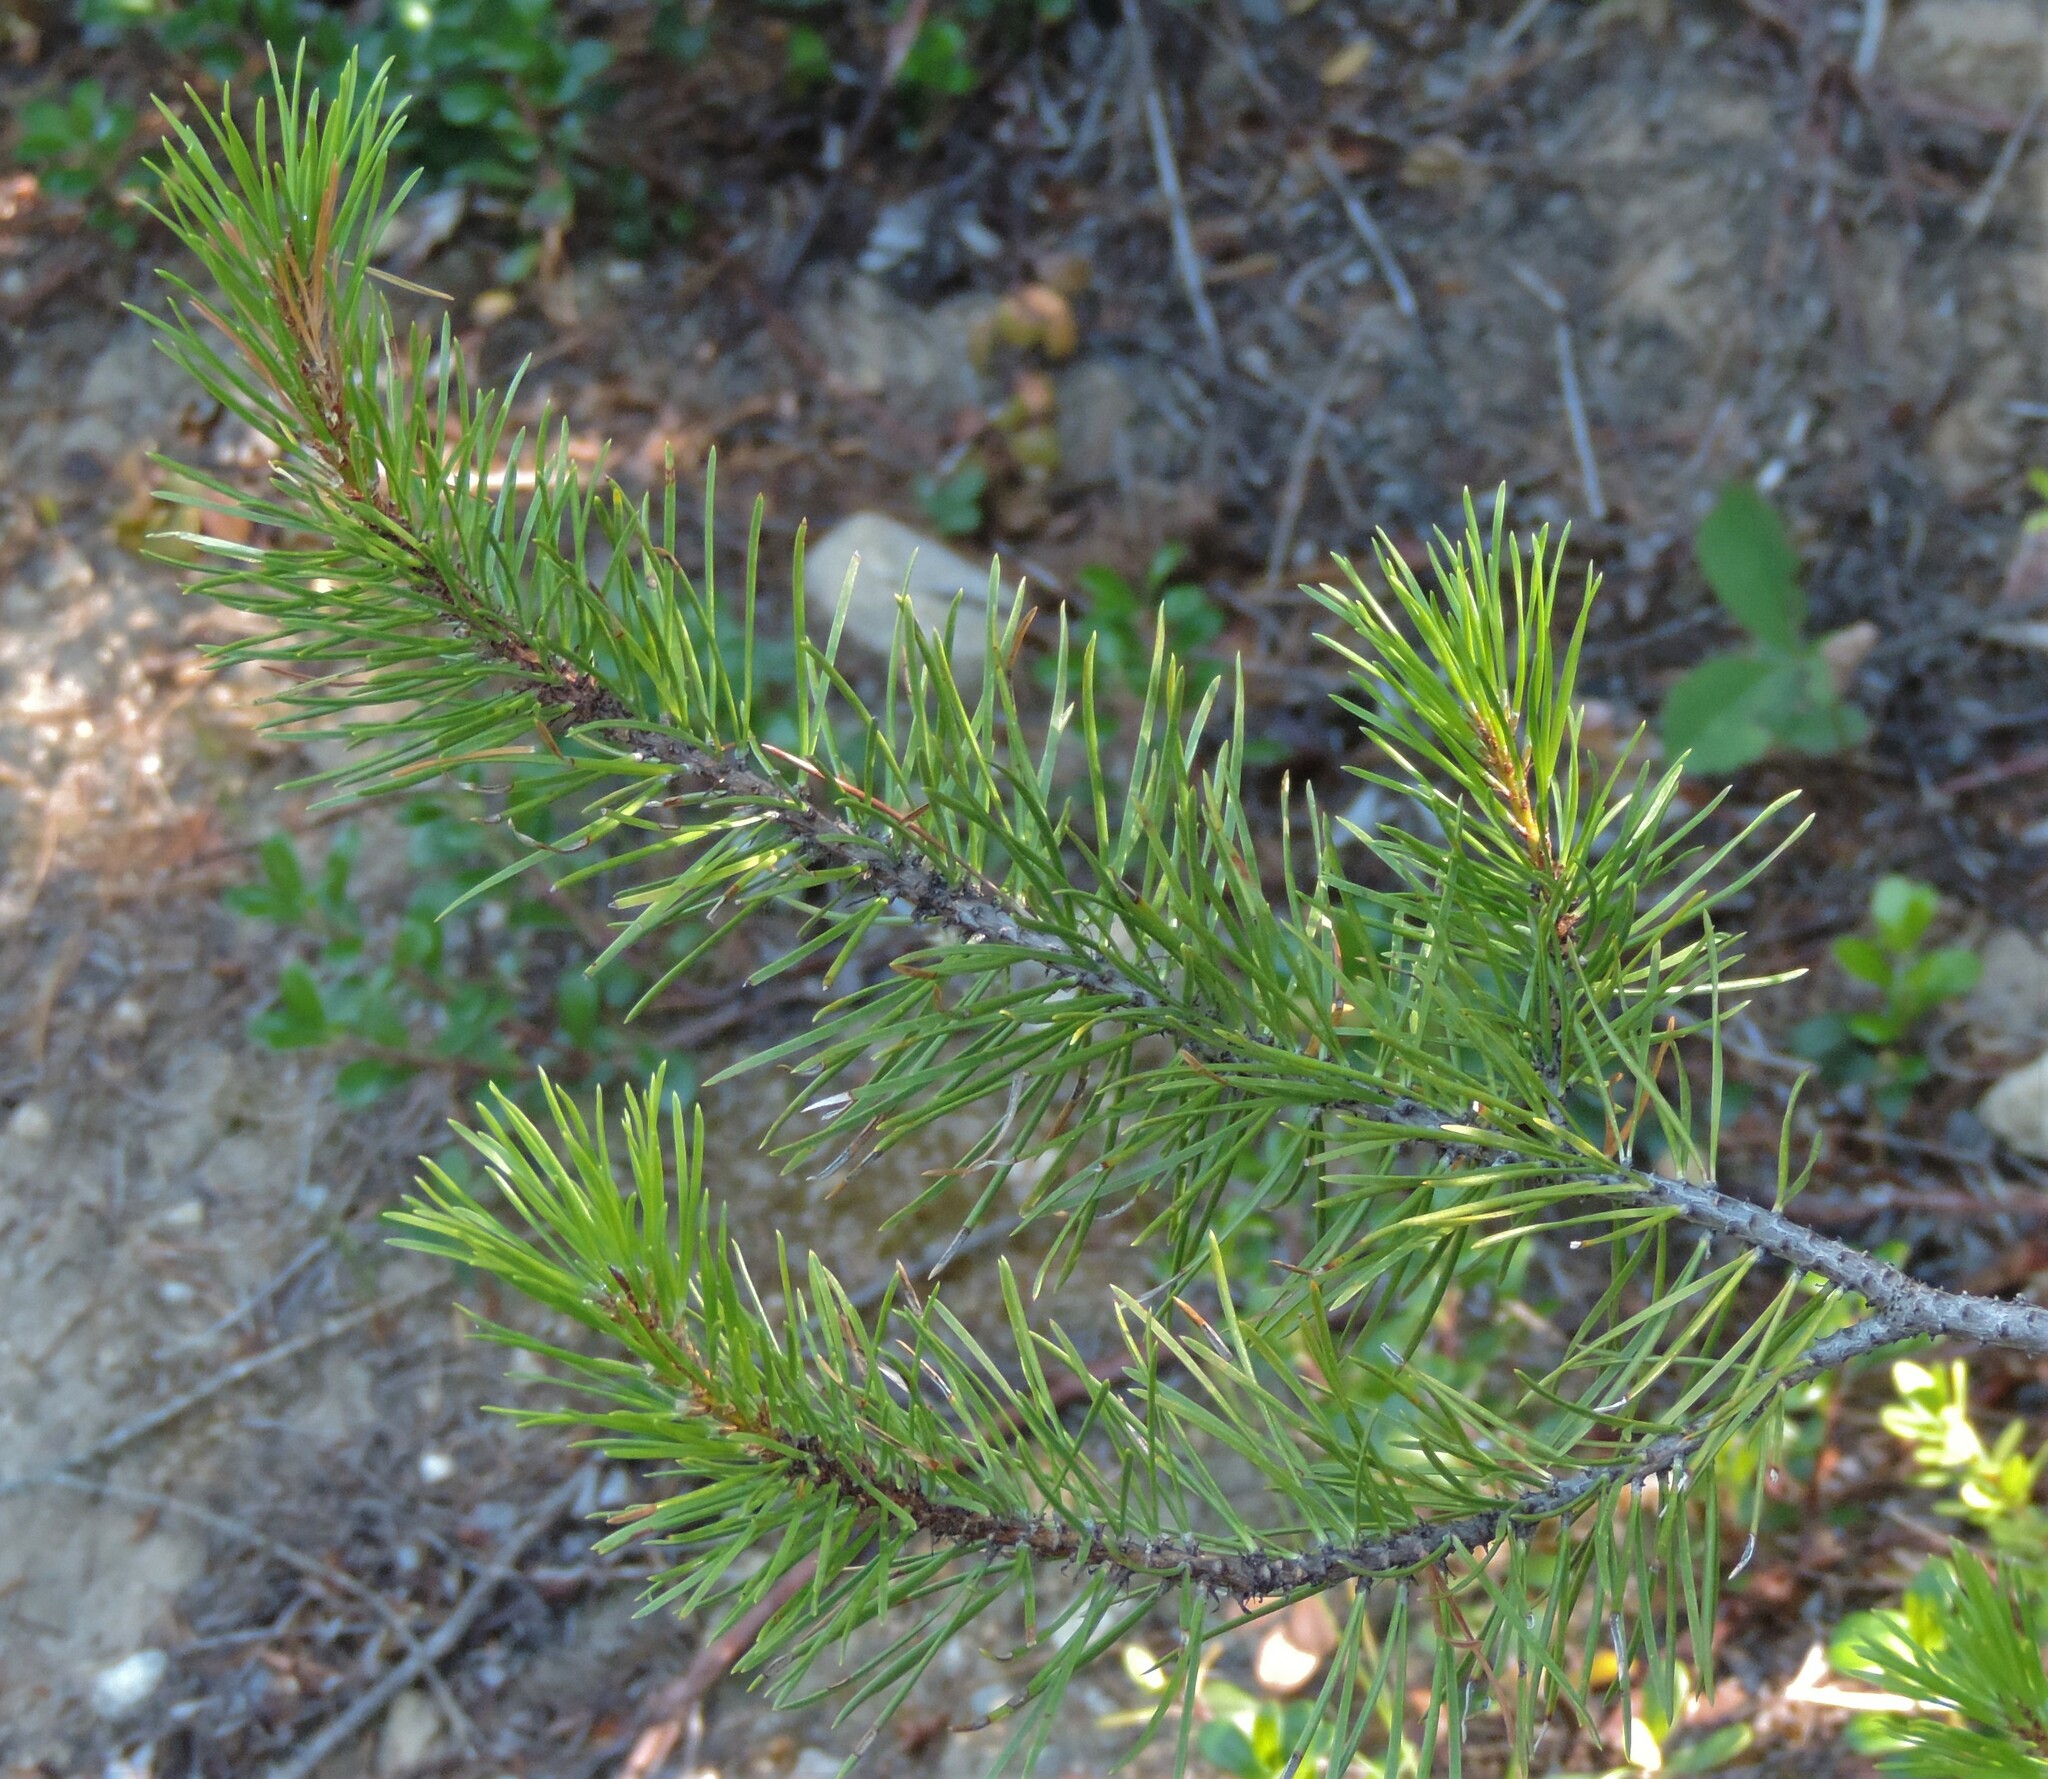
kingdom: Plantae
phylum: Tracheophyta
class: Pinopsida
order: Pinales
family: Pinaceae
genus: Pinus
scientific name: Pinus contorta
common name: Lodgepole pine
